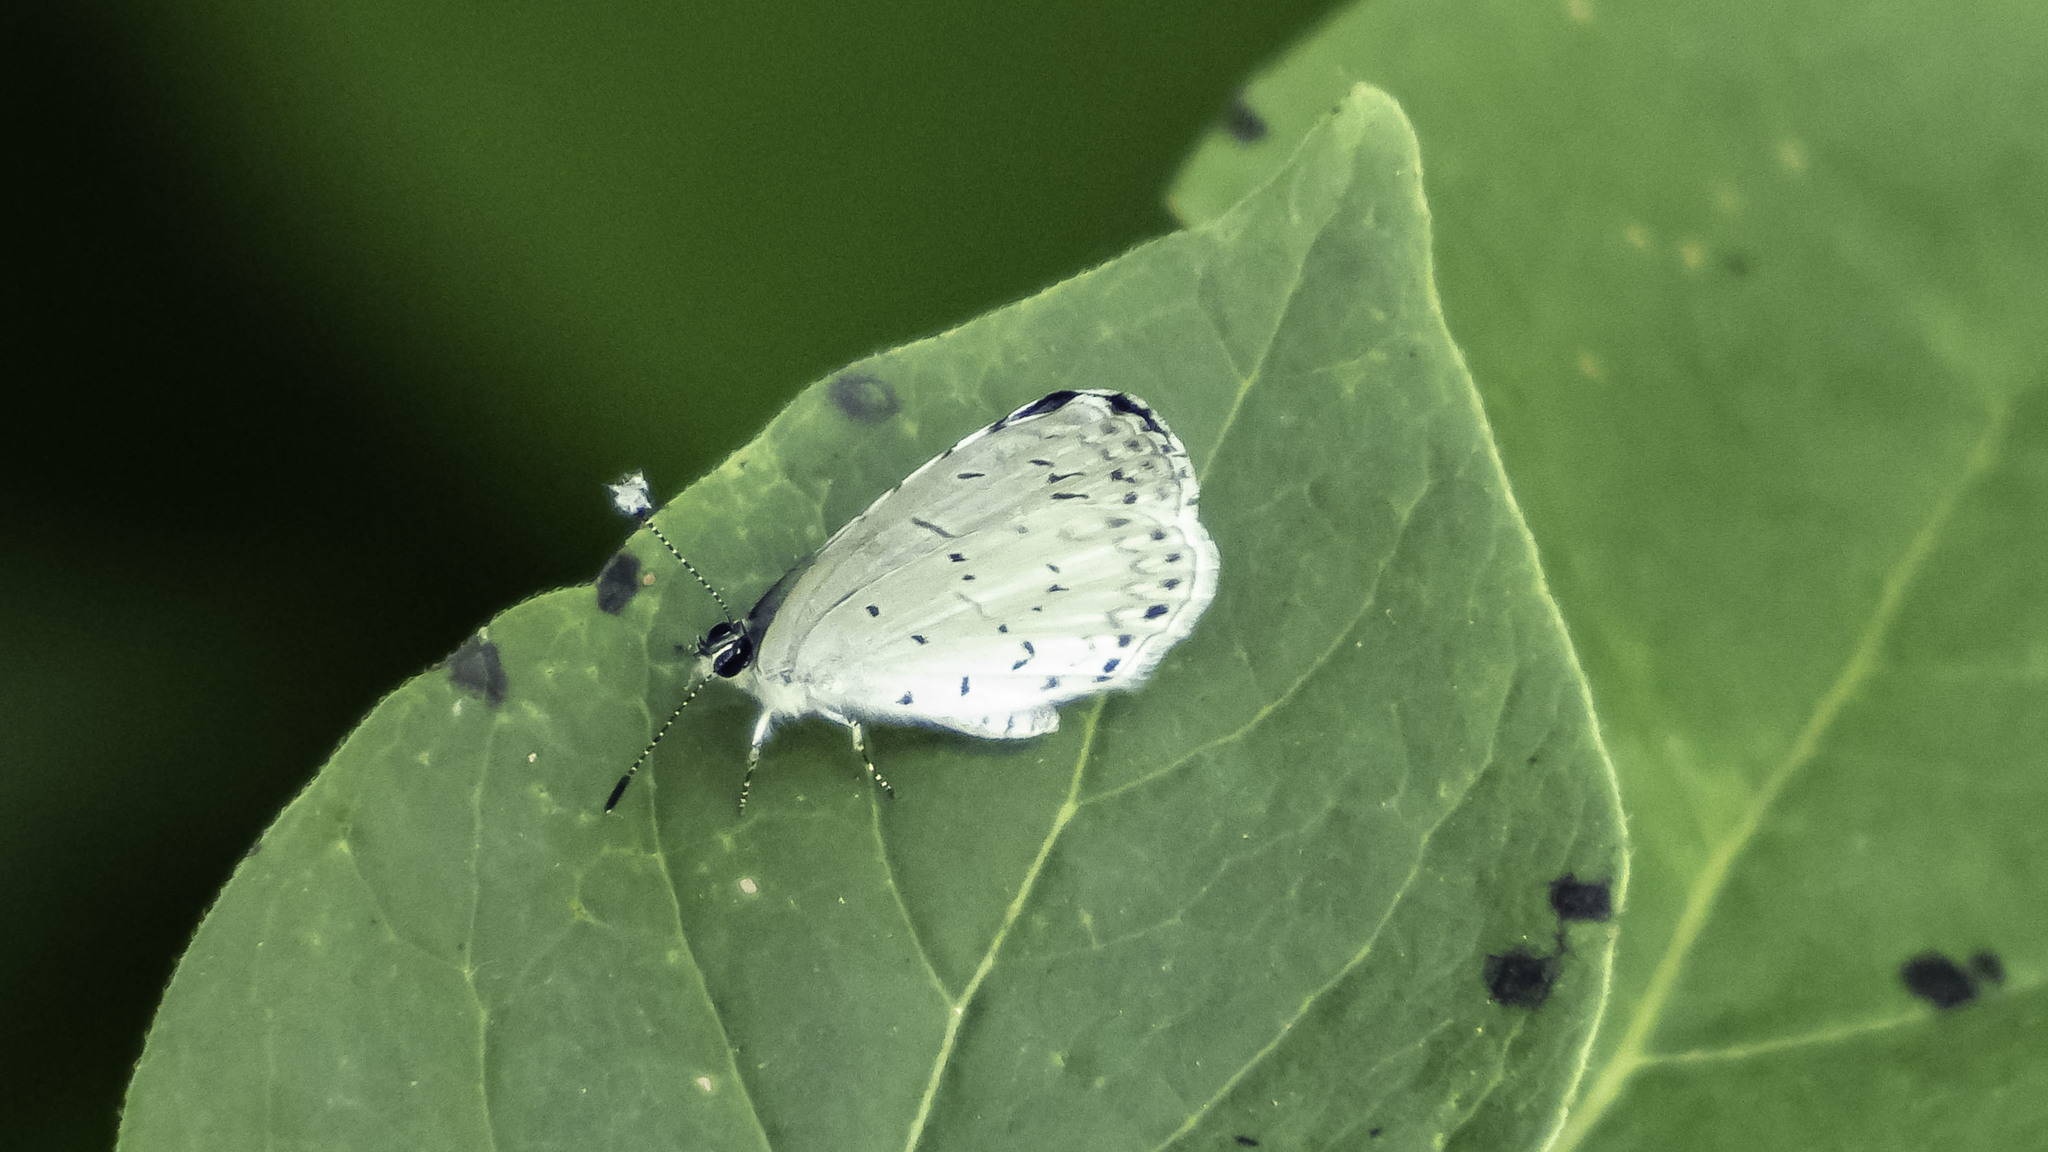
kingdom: Animalia
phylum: Arthropoda
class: Insecta
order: Lepidoptera
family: Lycaenidae
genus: Cyaniris
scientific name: Cyaniris neglecta
